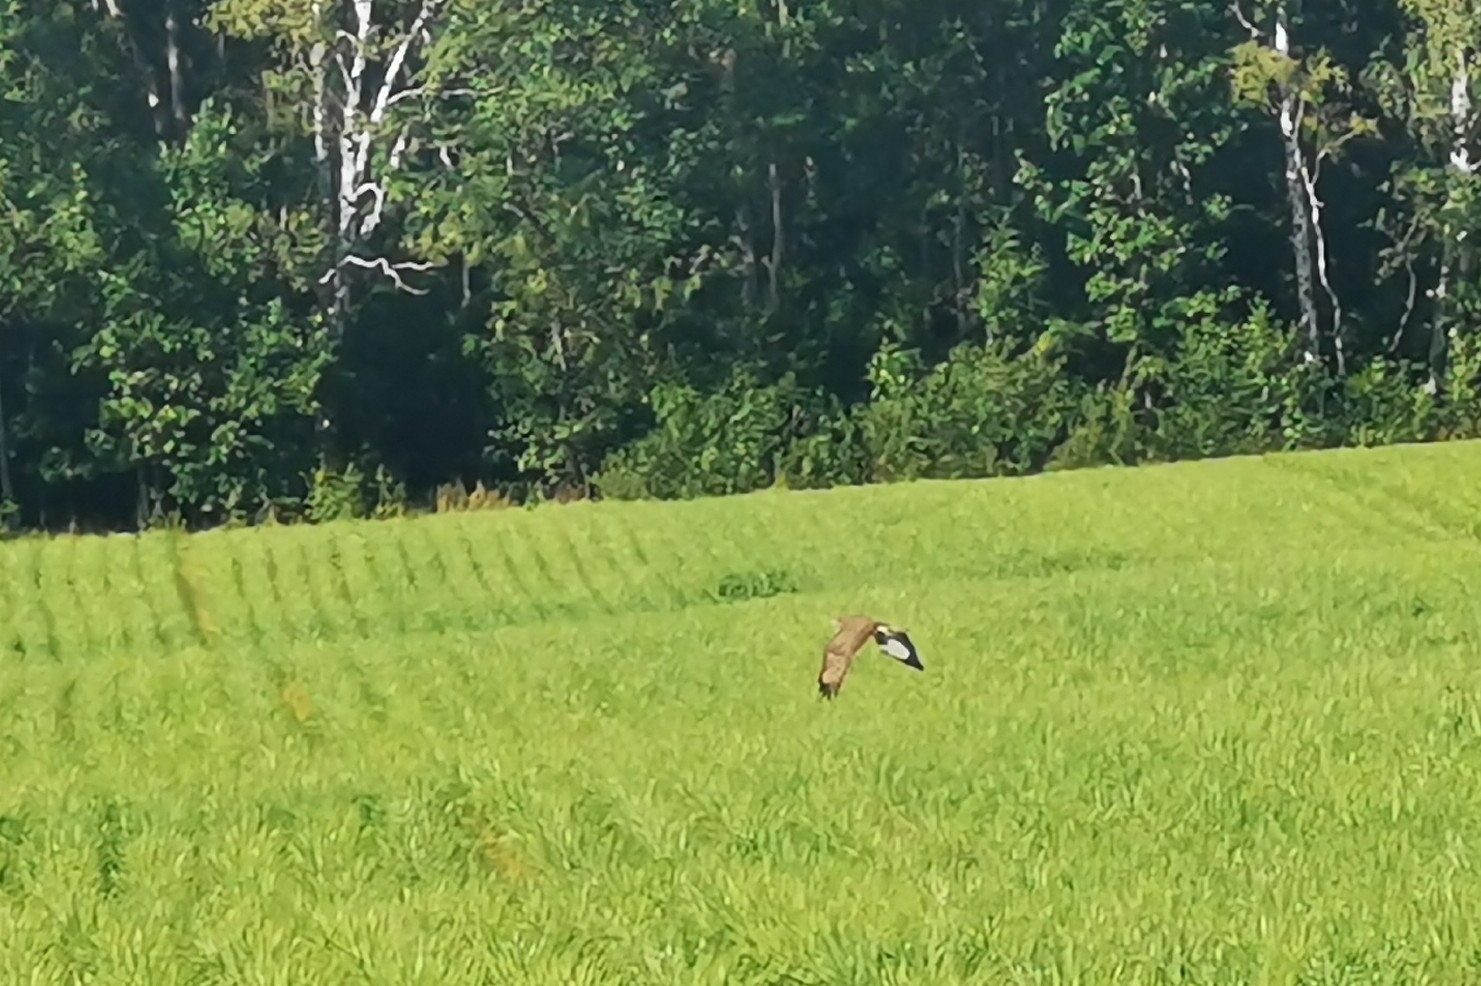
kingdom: Animalia
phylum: Chordata
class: Aves
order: Accipitriformes
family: Accipitridae
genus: Buteo
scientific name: Buteo buteo
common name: Common buzzard
